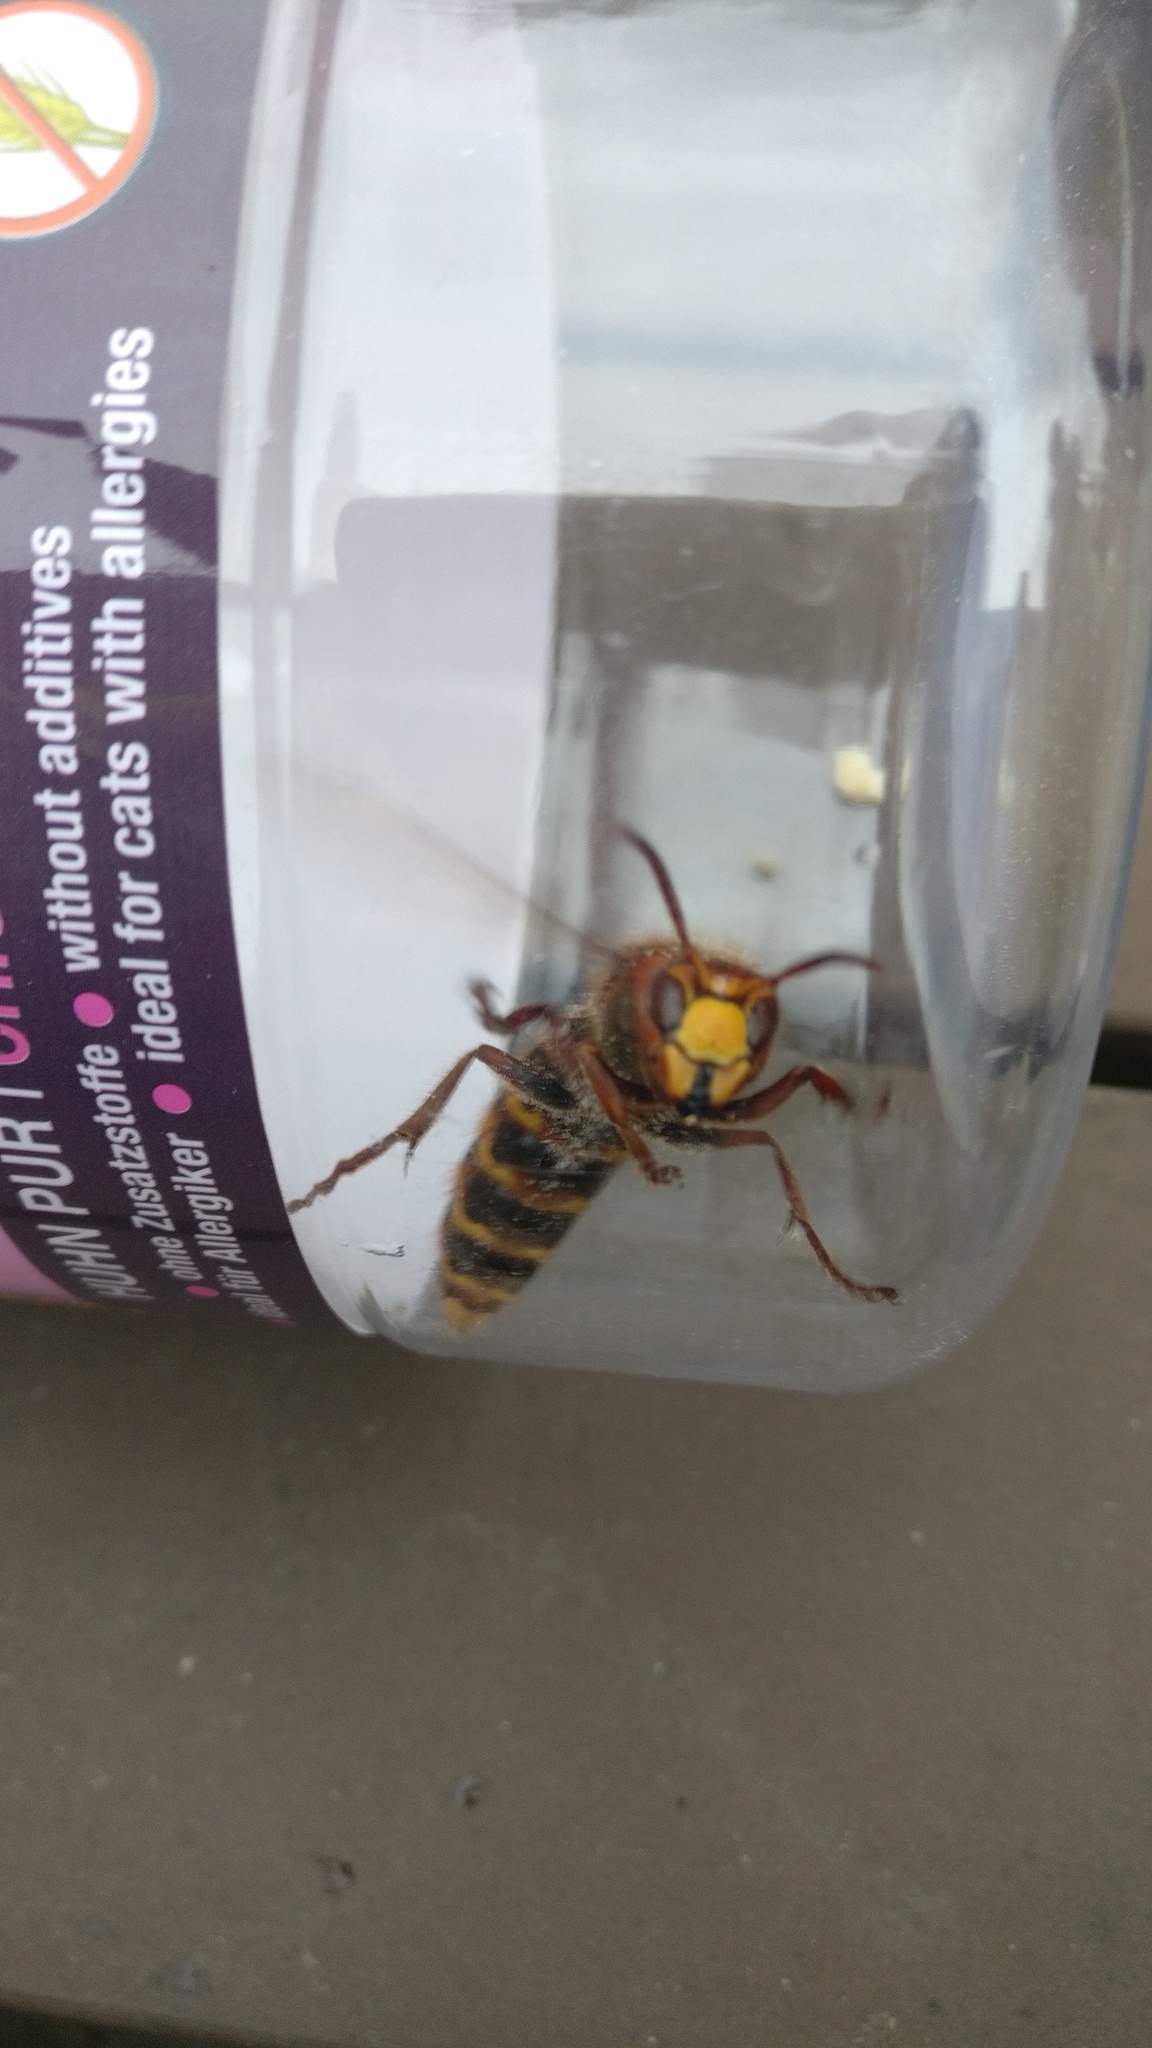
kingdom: Animalia
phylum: Arthropoda
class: Insecta
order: Hymenoptera
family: Vespidae
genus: Vespa
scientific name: Vespa crabro
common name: Hornet
